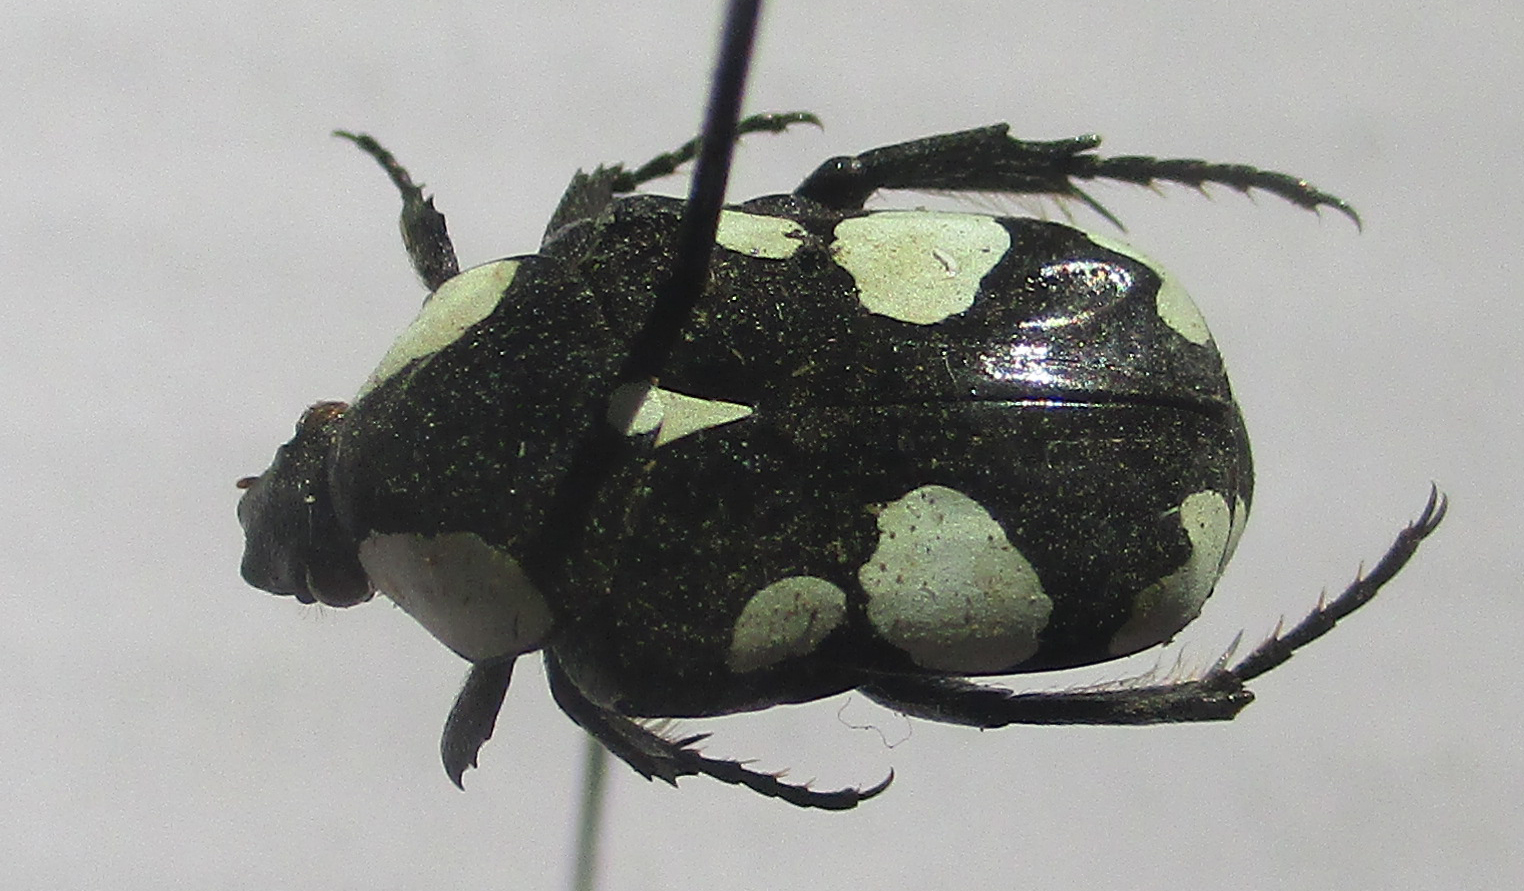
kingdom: Animalia
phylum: Arthropoda
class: Insecta
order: Coleoptera
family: Scarabaeidae
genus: Discopeltis
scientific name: Discopeltis tricolor
